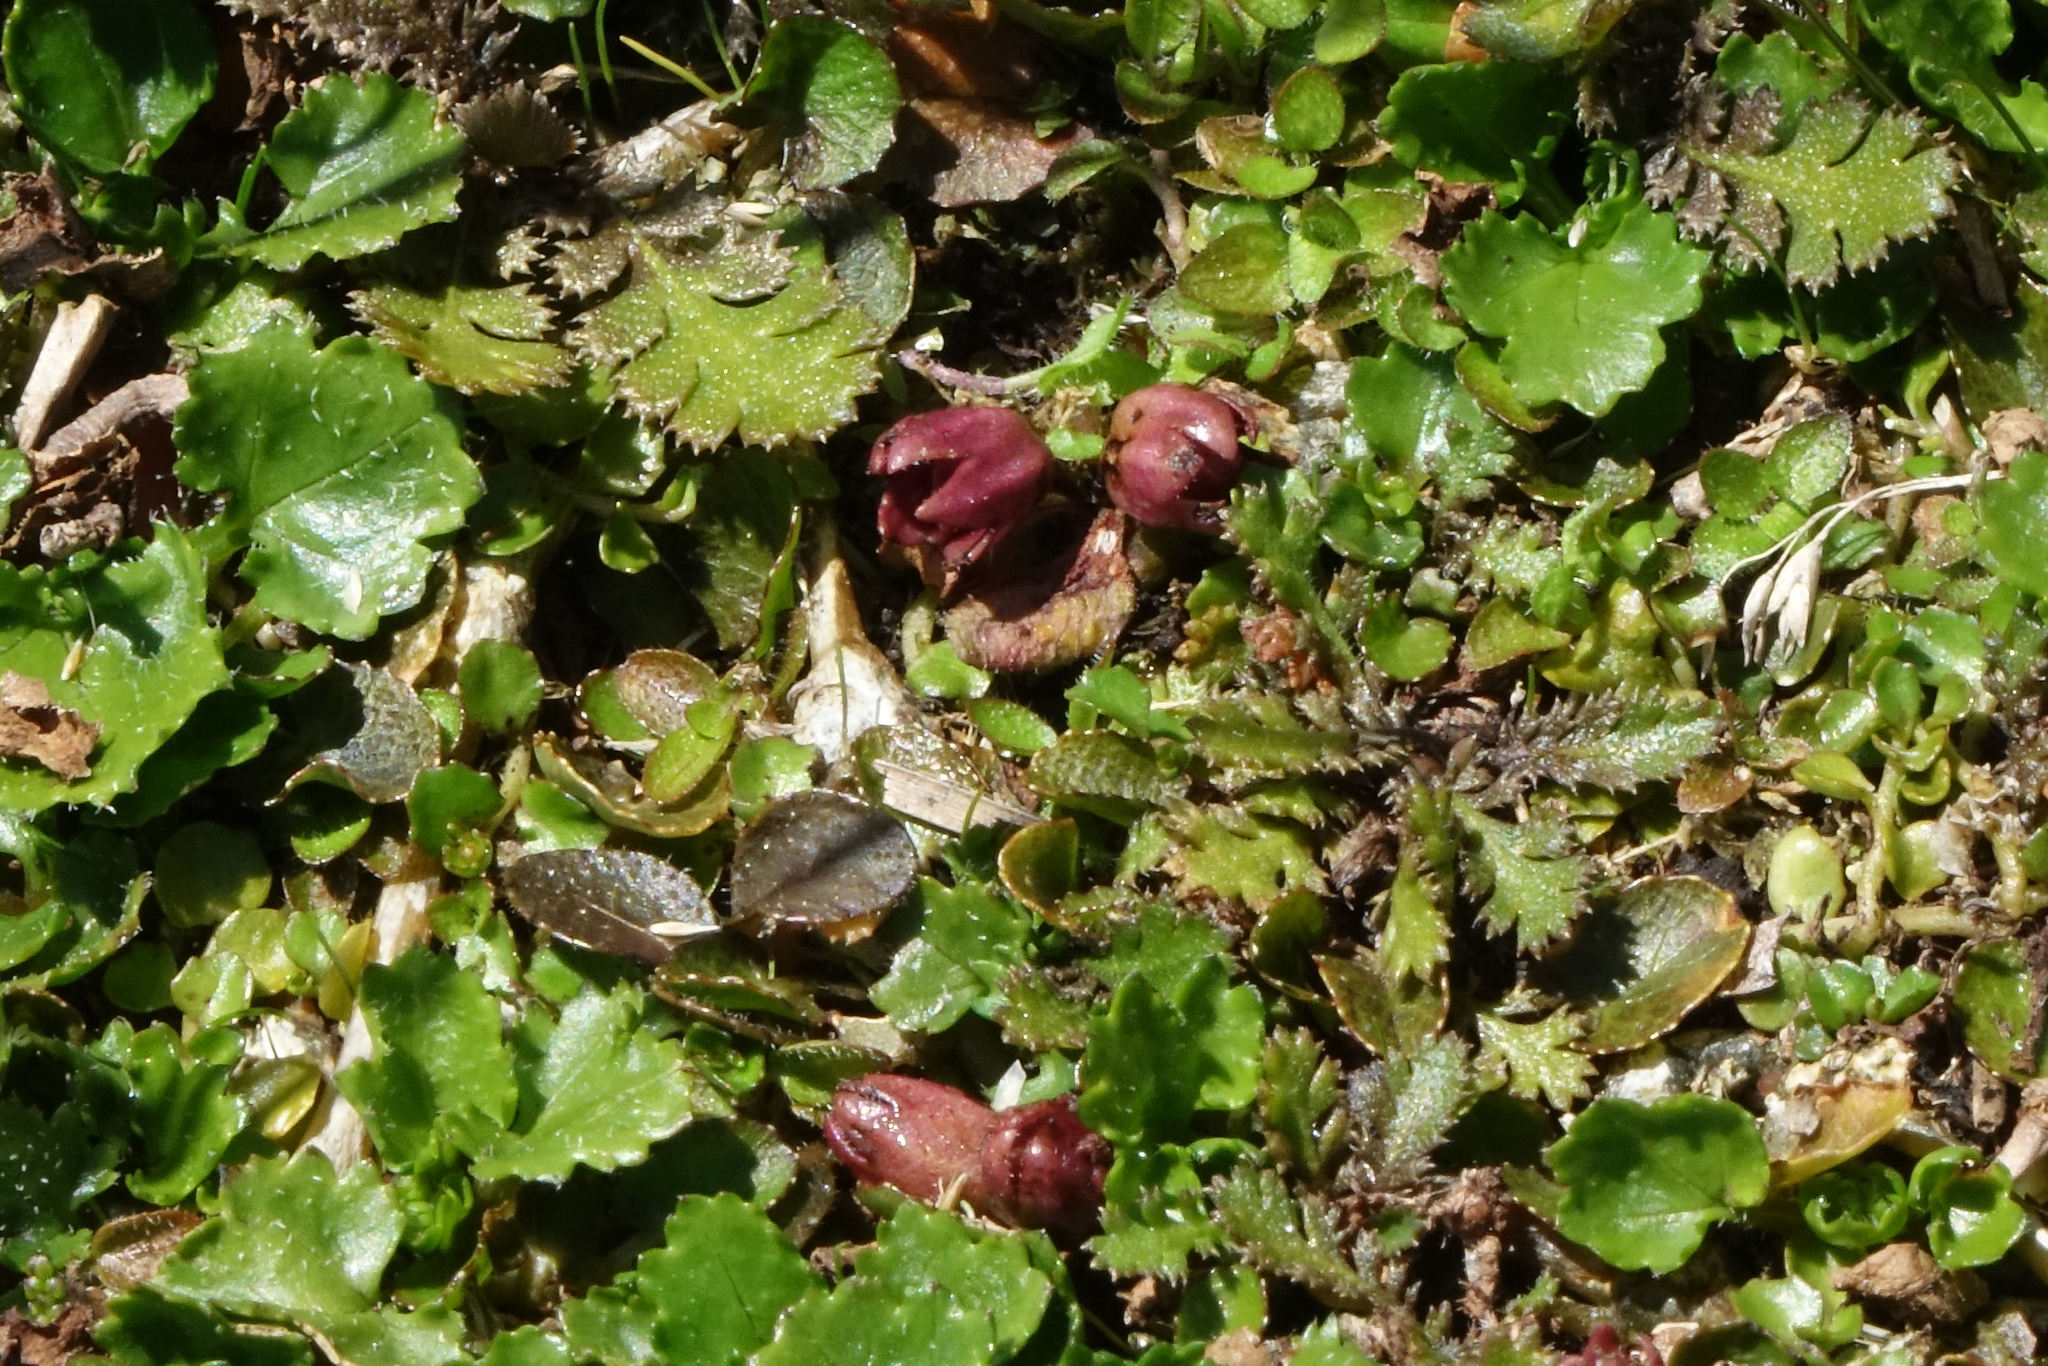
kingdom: Plantae
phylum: Tracheophyta
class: Magnoliopsida
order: Lamiales
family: Mazaceae
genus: Mazus
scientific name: Mazus arenarius
